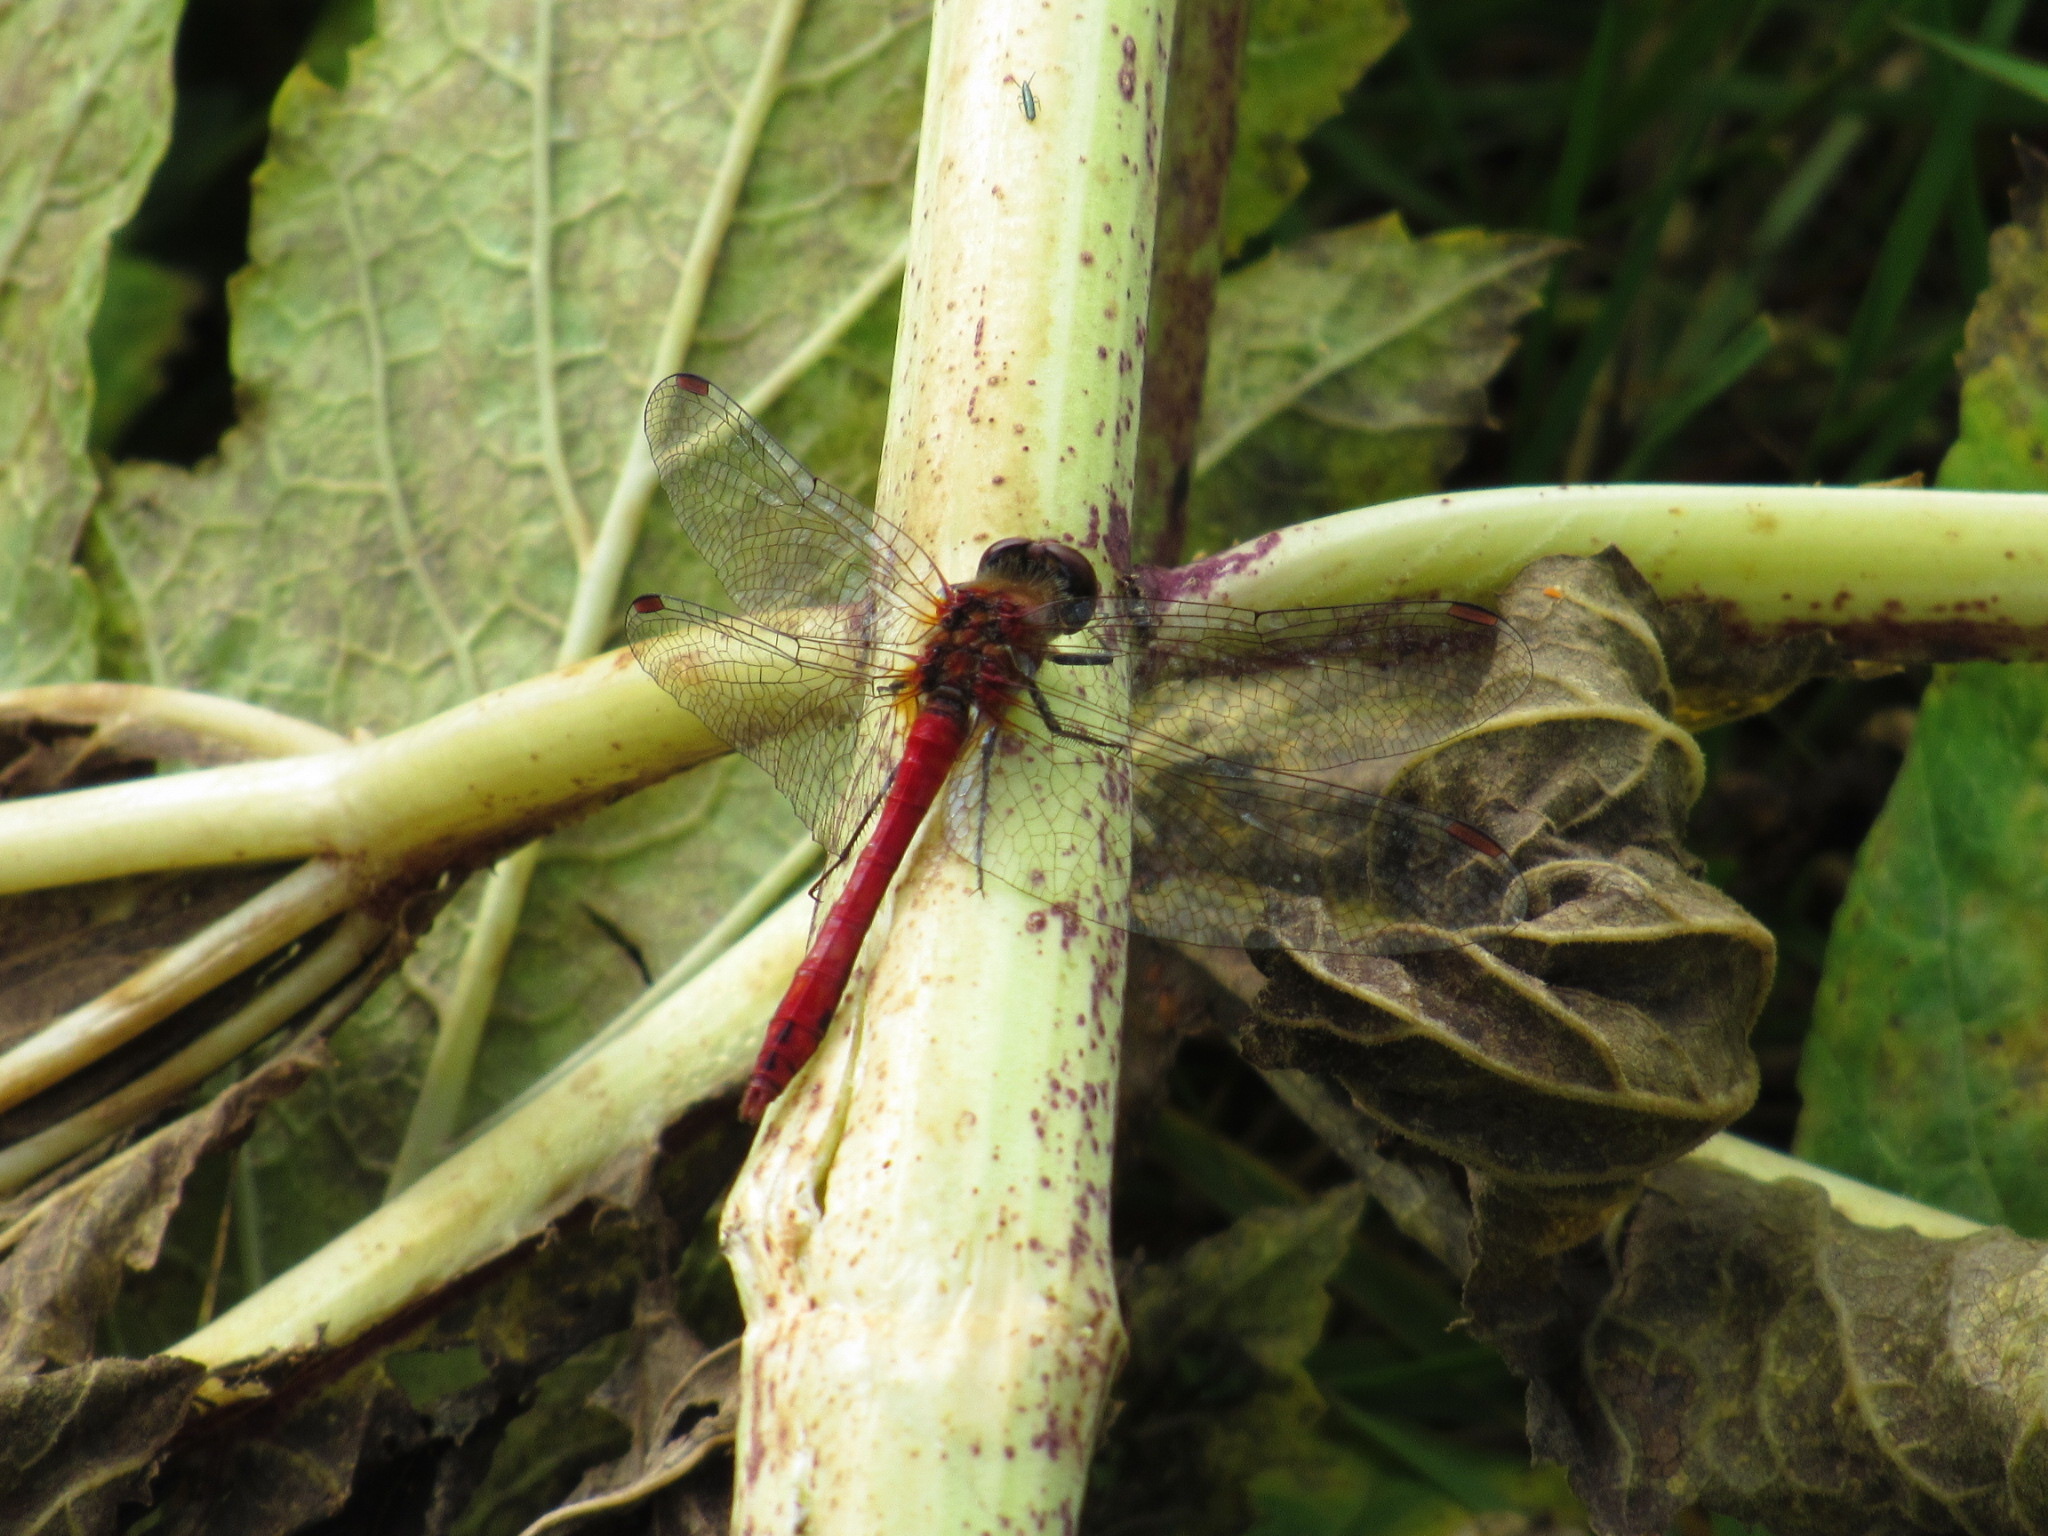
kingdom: Animalia
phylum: Arthropoda
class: Insecta
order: Odonata
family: Libellulidae
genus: Sympetrum
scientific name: Sympetrum sanguineum
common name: Ruddy darter
